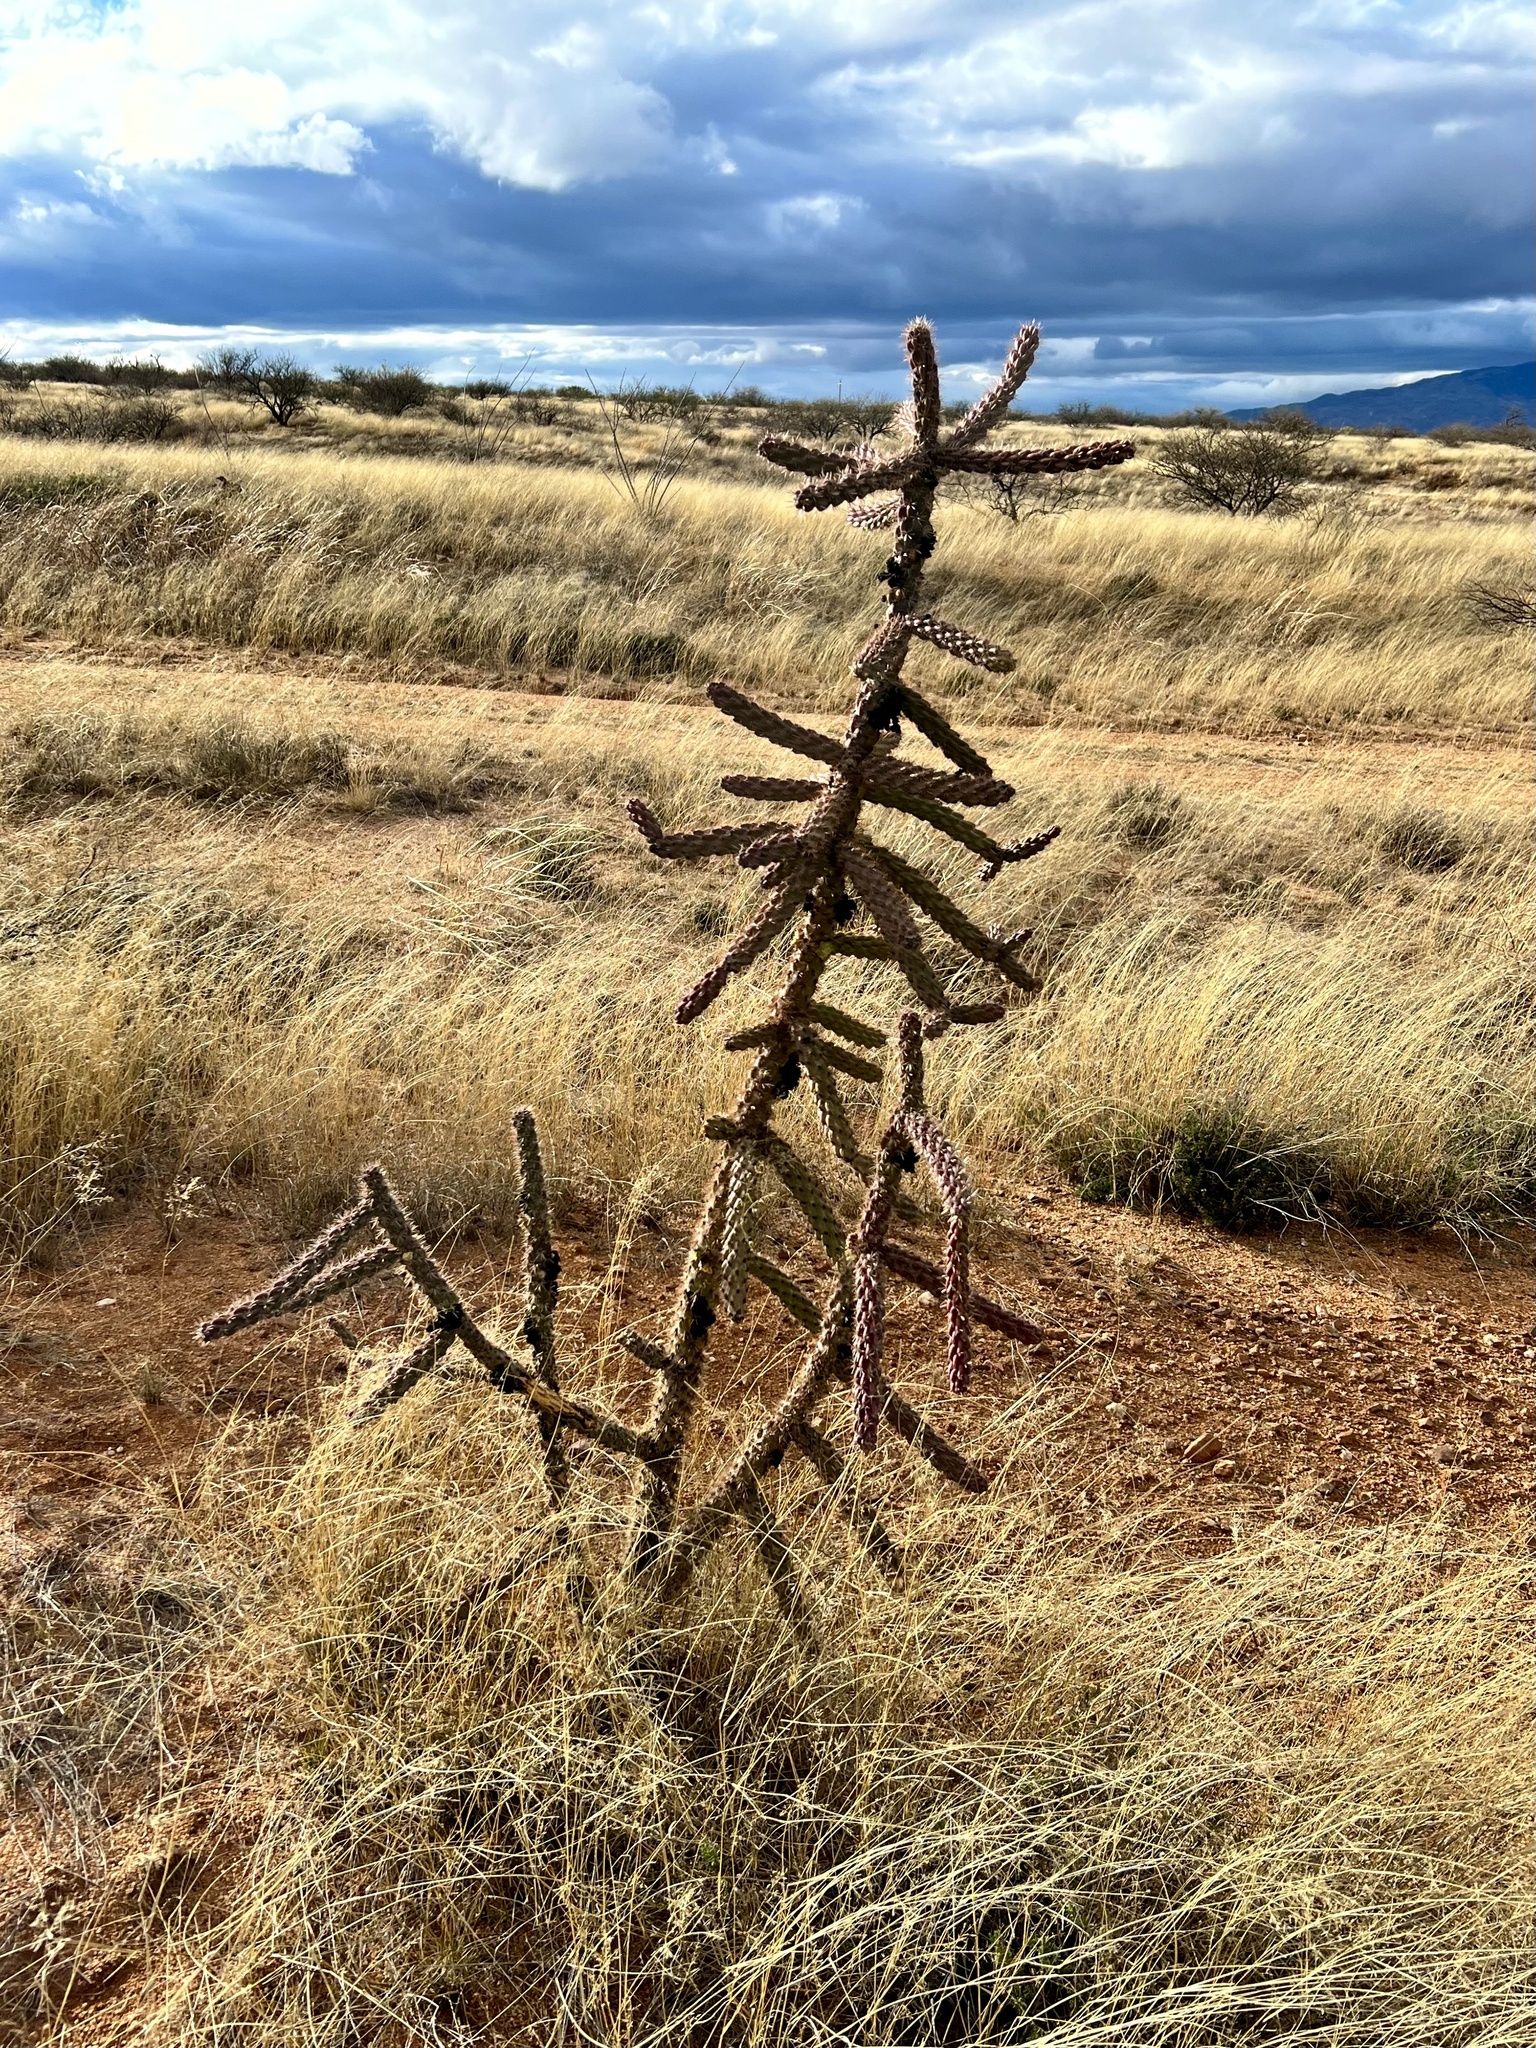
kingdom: Plantae
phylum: Tracheophyta
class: Magnoliopsida
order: Caryophyllales
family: Cactaceae
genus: Cylindropuntia
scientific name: Cylindropuntia imbricata
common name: Candelabrum cactus
